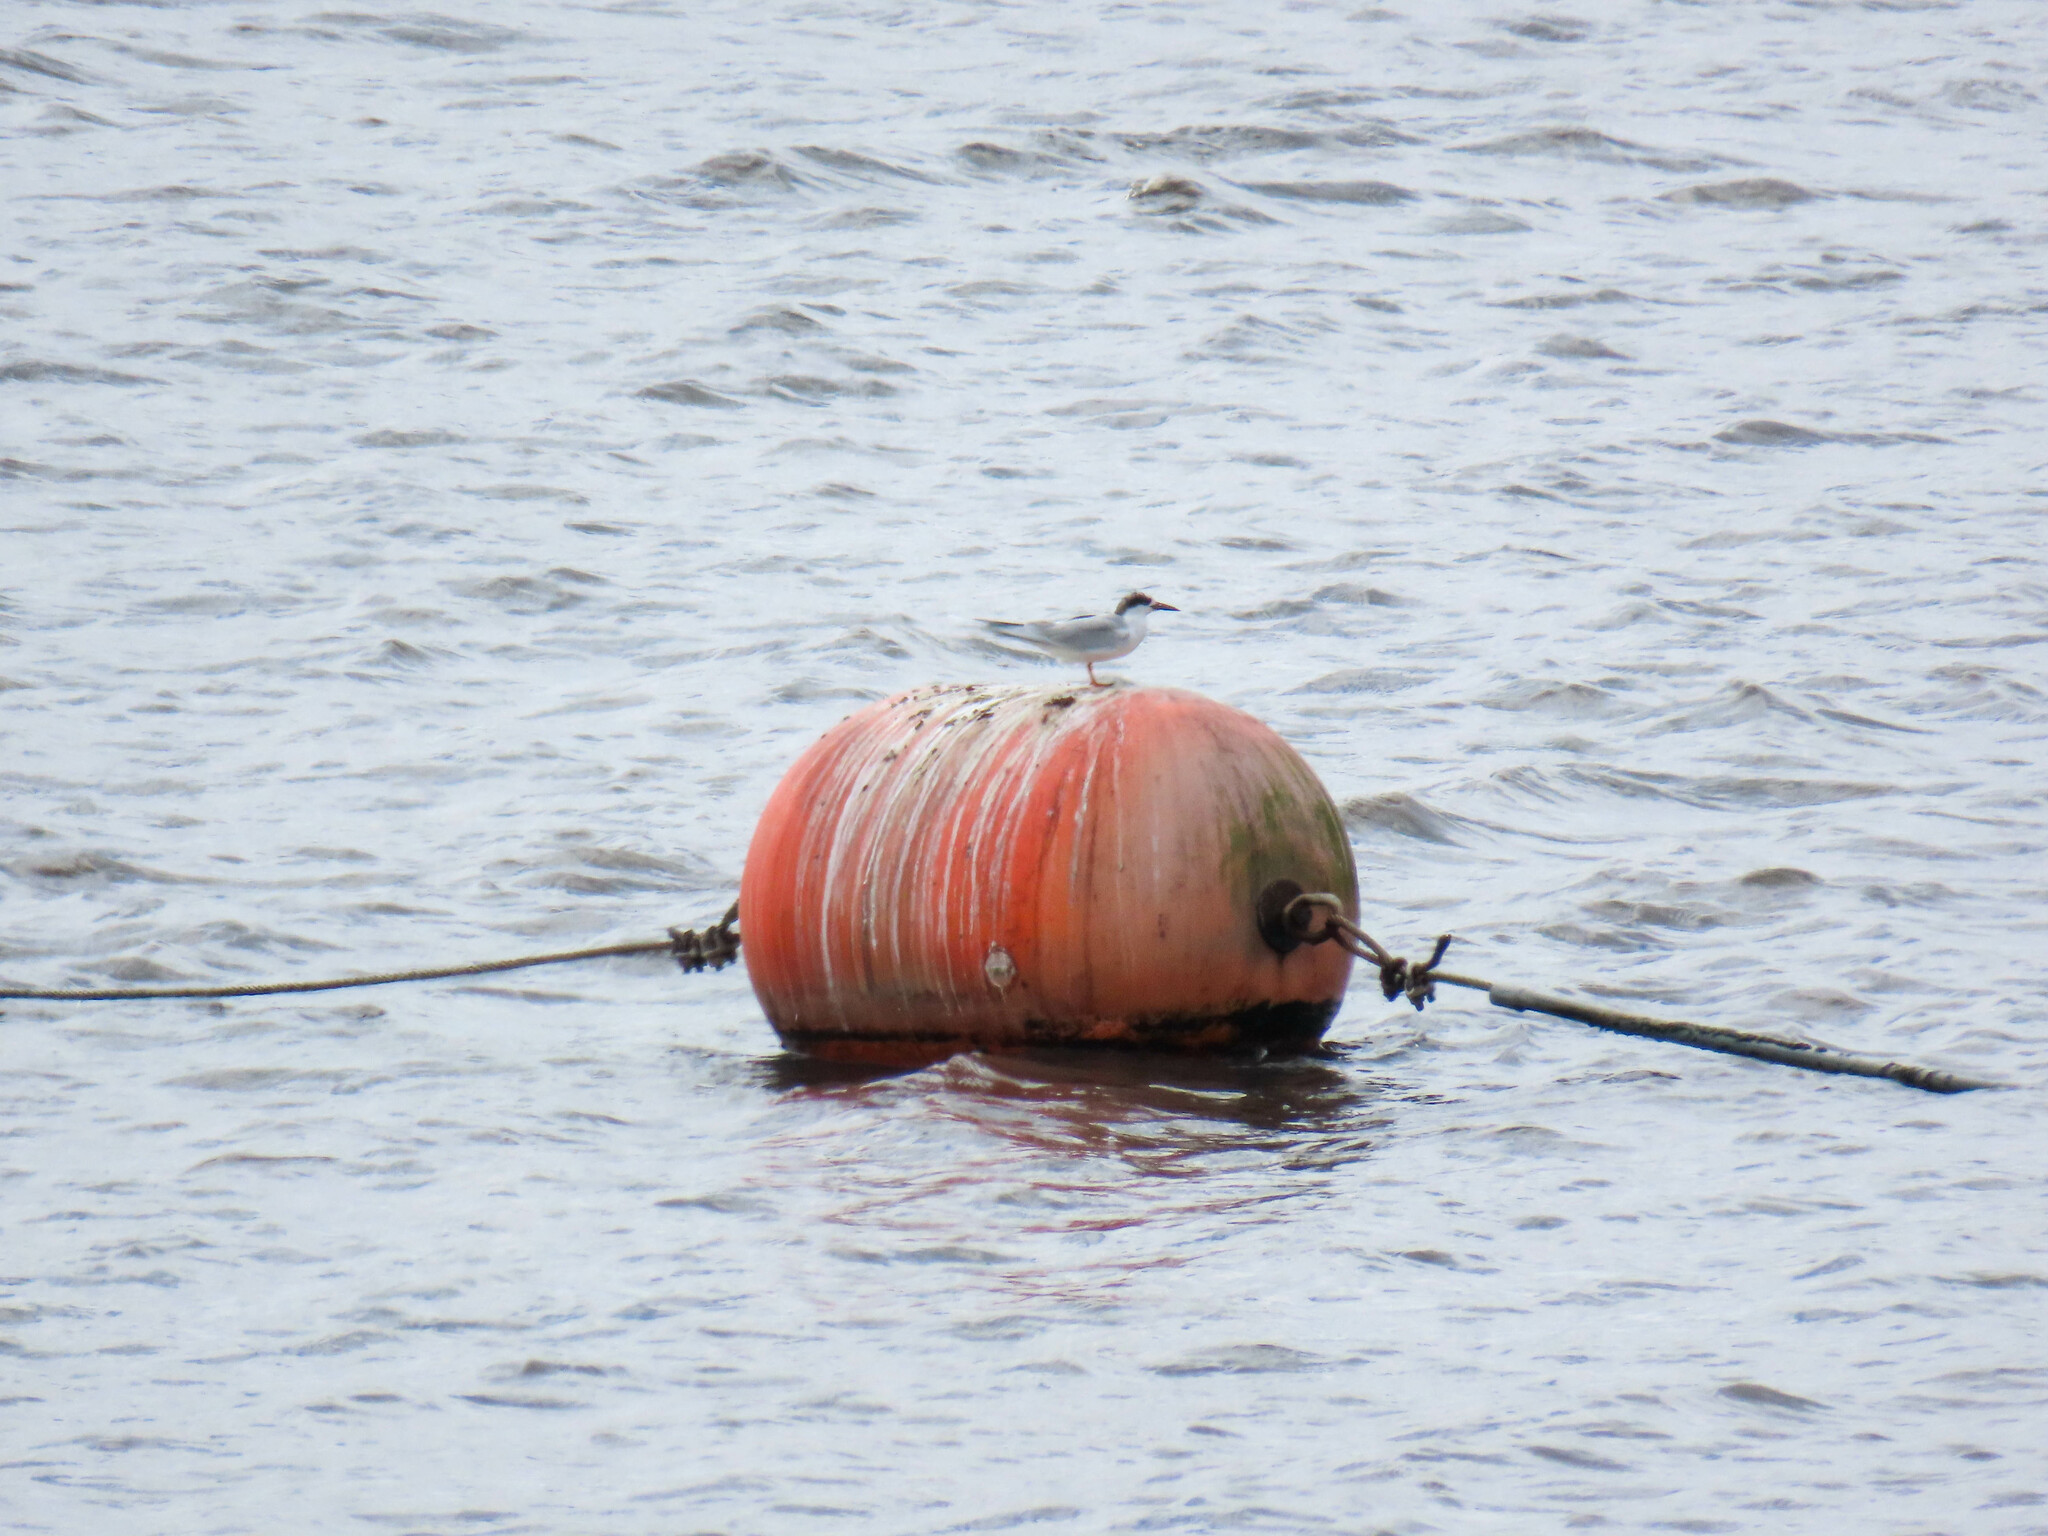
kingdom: Animalia
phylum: Chordata
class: Aves
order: Charadriiformes
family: Laridae
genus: Sterna
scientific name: Sterna forsteri
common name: Forster's tern
